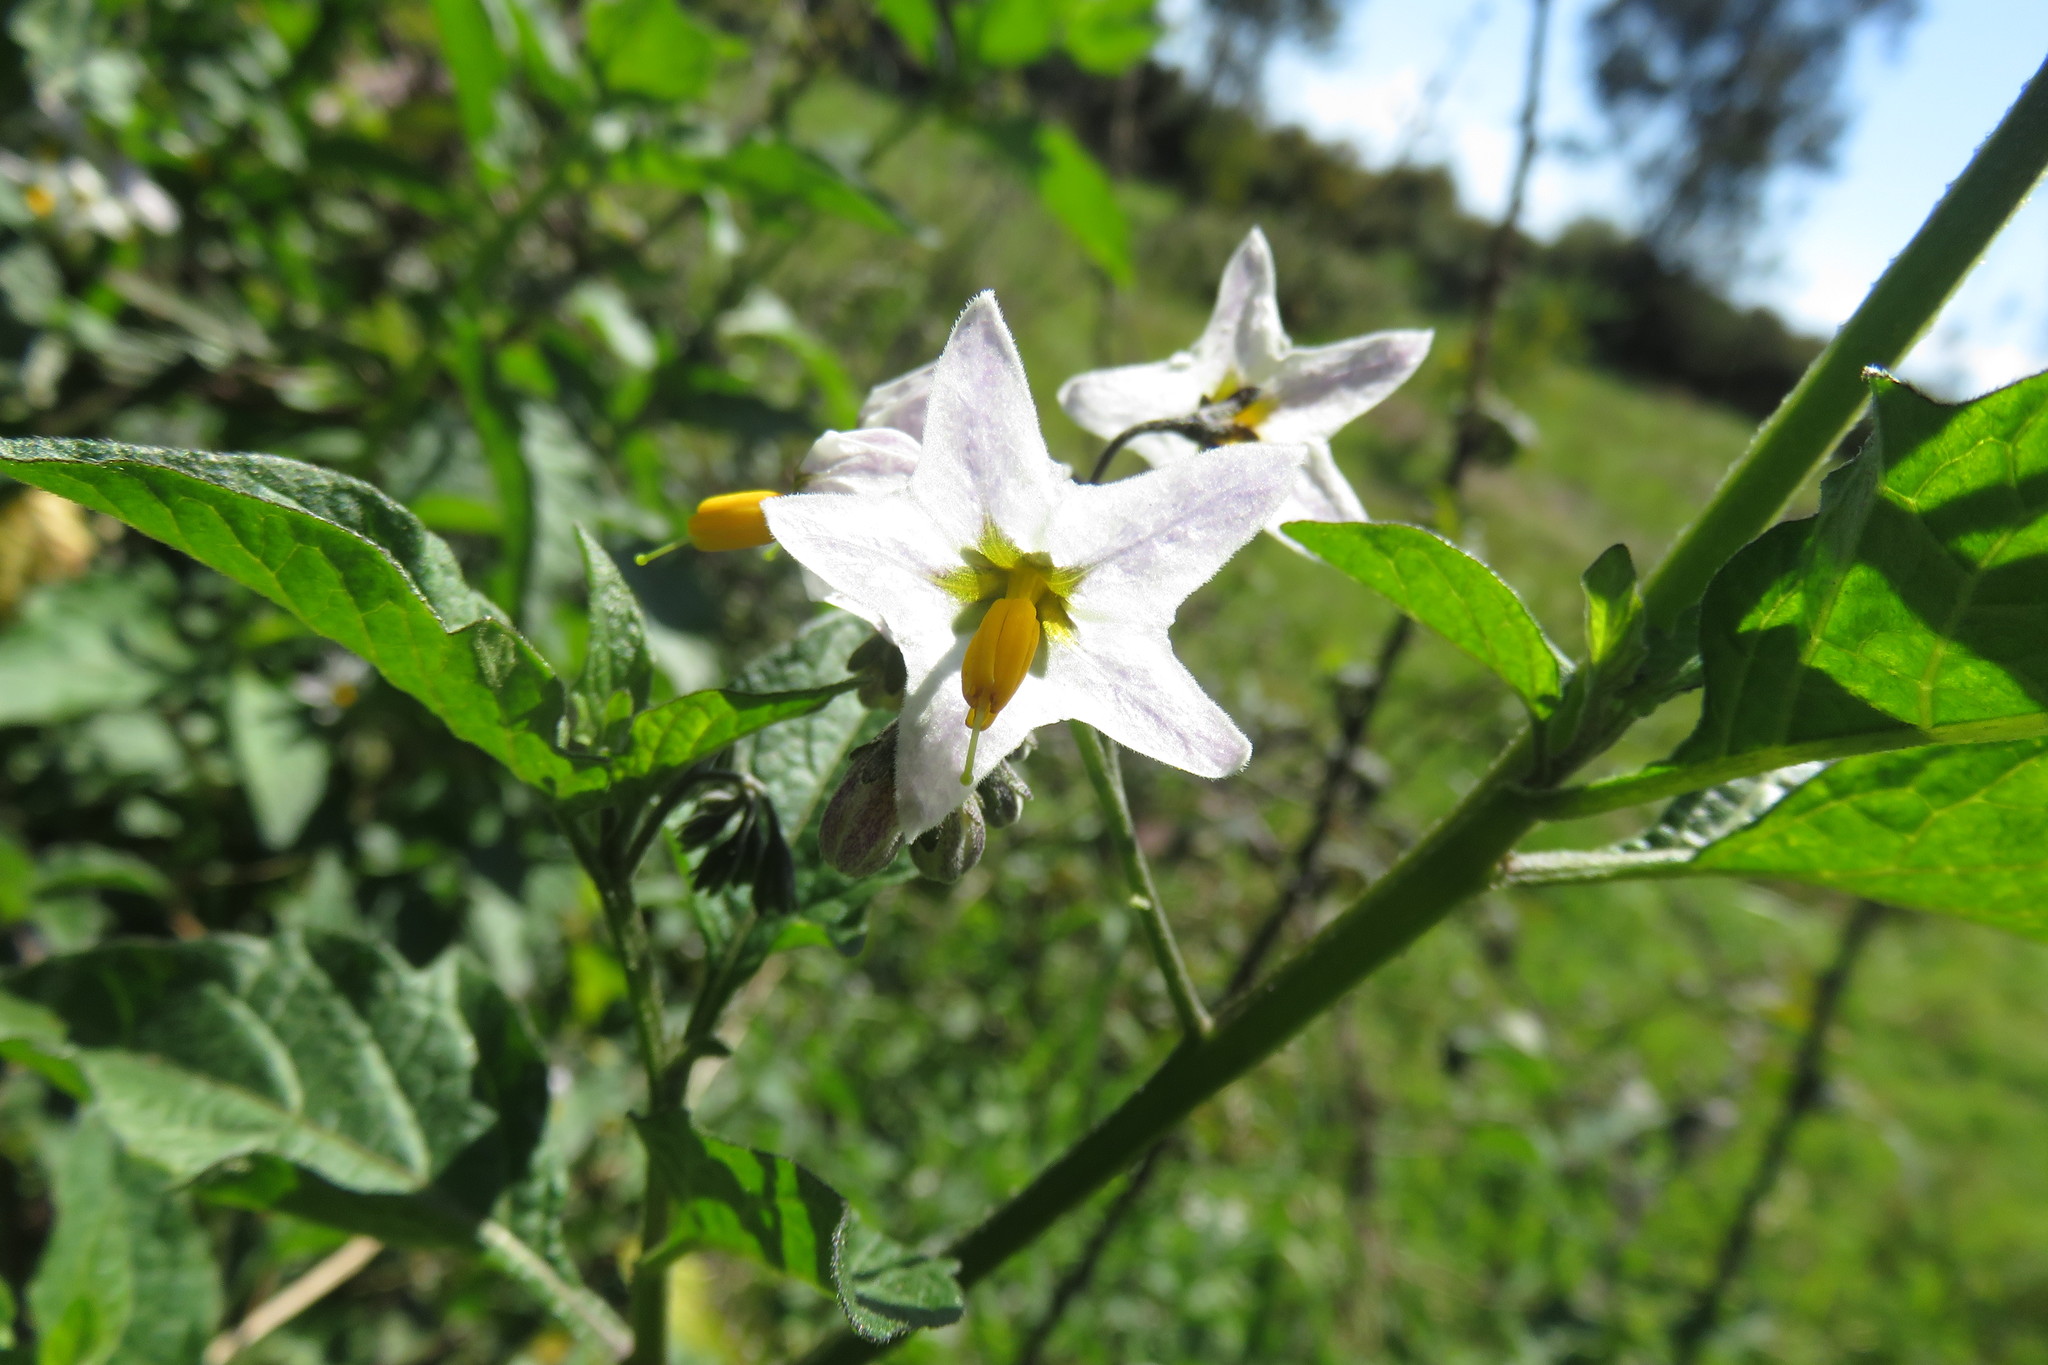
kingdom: Plantae
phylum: Tracheophyta
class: Magnoliopsida
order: Solanales
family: Solanaceae
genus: Solanum
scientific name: Solanum furcatum
